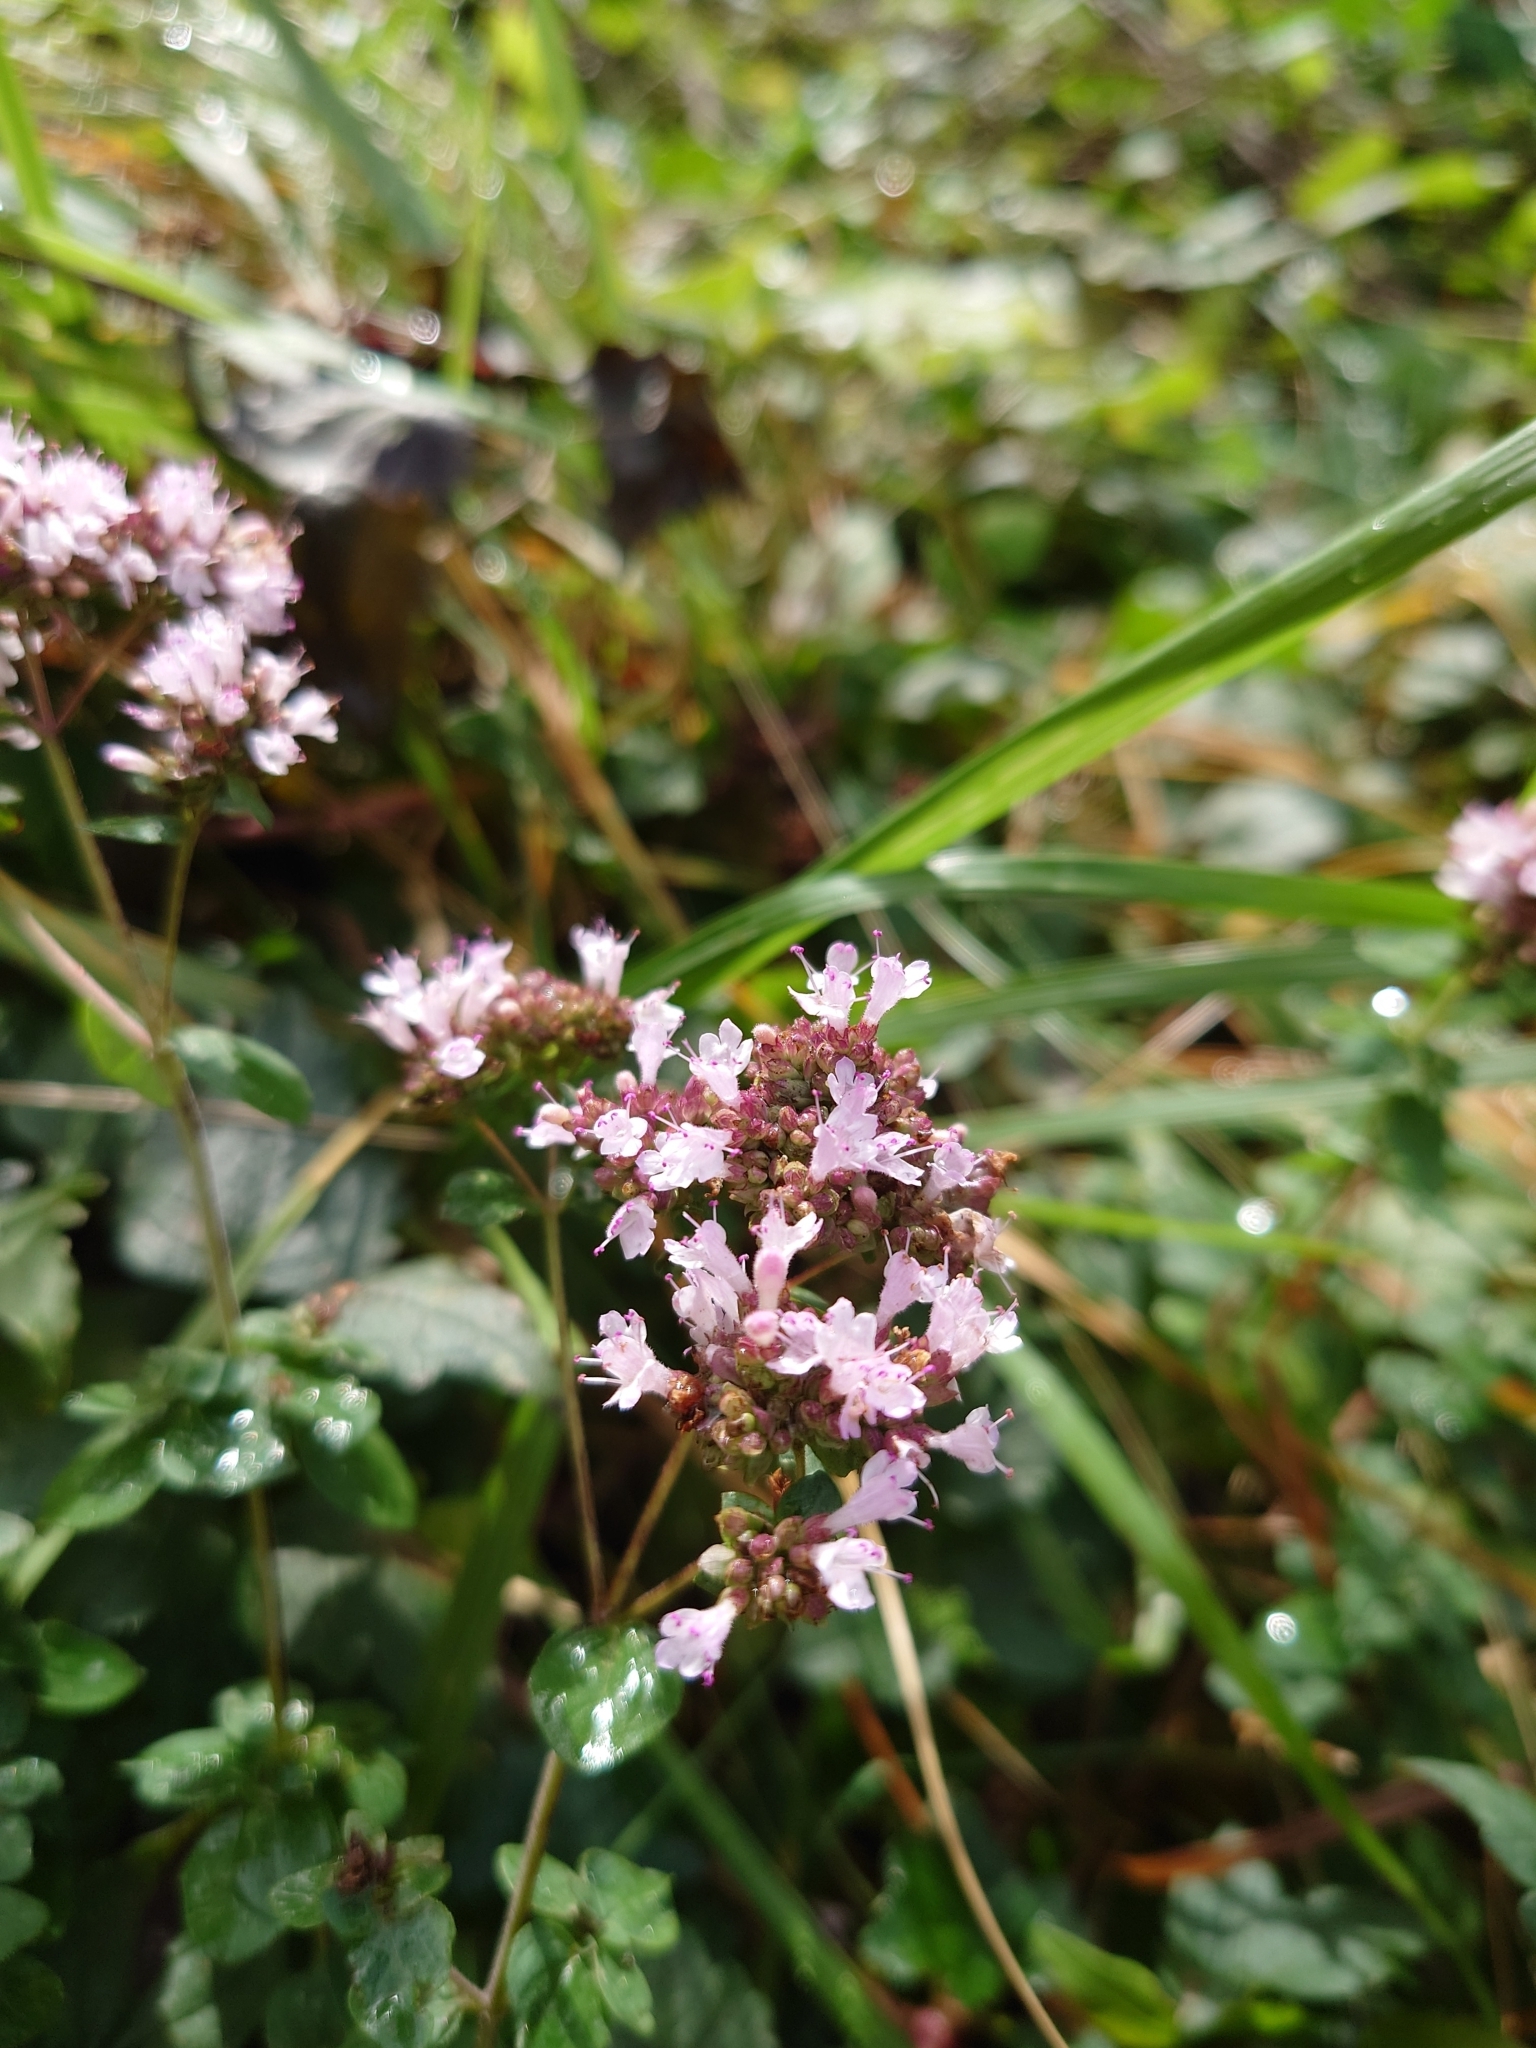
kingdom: Plantae
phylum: Tracheophyta
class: Magnoliopsida
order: Lamiales
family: Lamiaceae
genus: Origanum
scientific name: Origanum vulgare
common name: Wild marjoram
